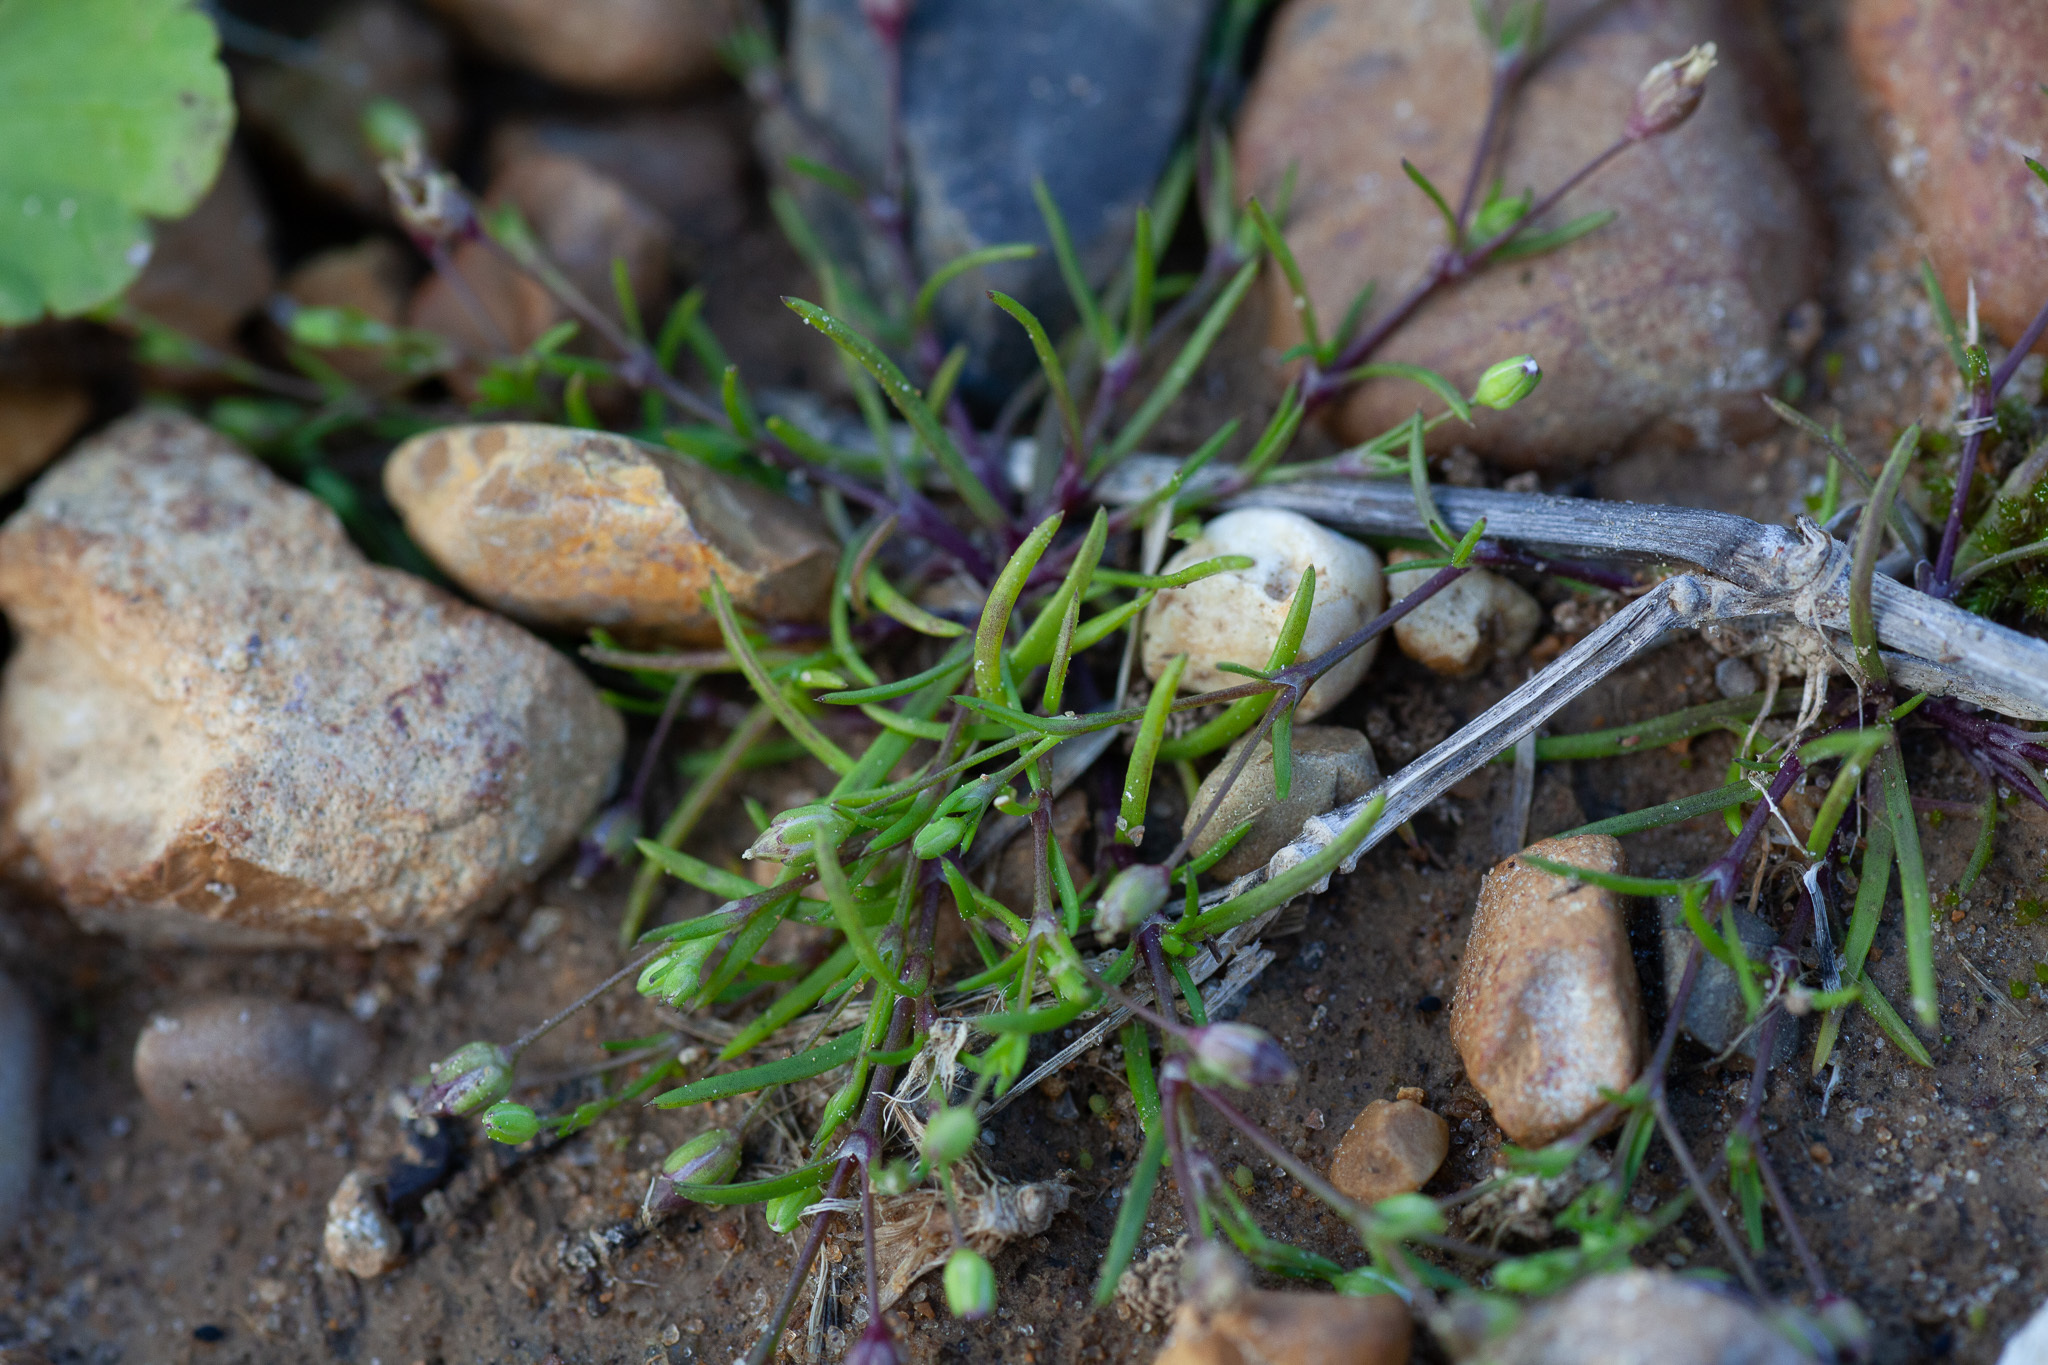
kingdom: Plantae
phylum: Tracheophyta
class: Magnoliopsida
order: Caryophyllales
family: Caryophyllaceae
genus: Sagina
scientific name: Sagina decumbens
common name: Decumbent pearlwort
